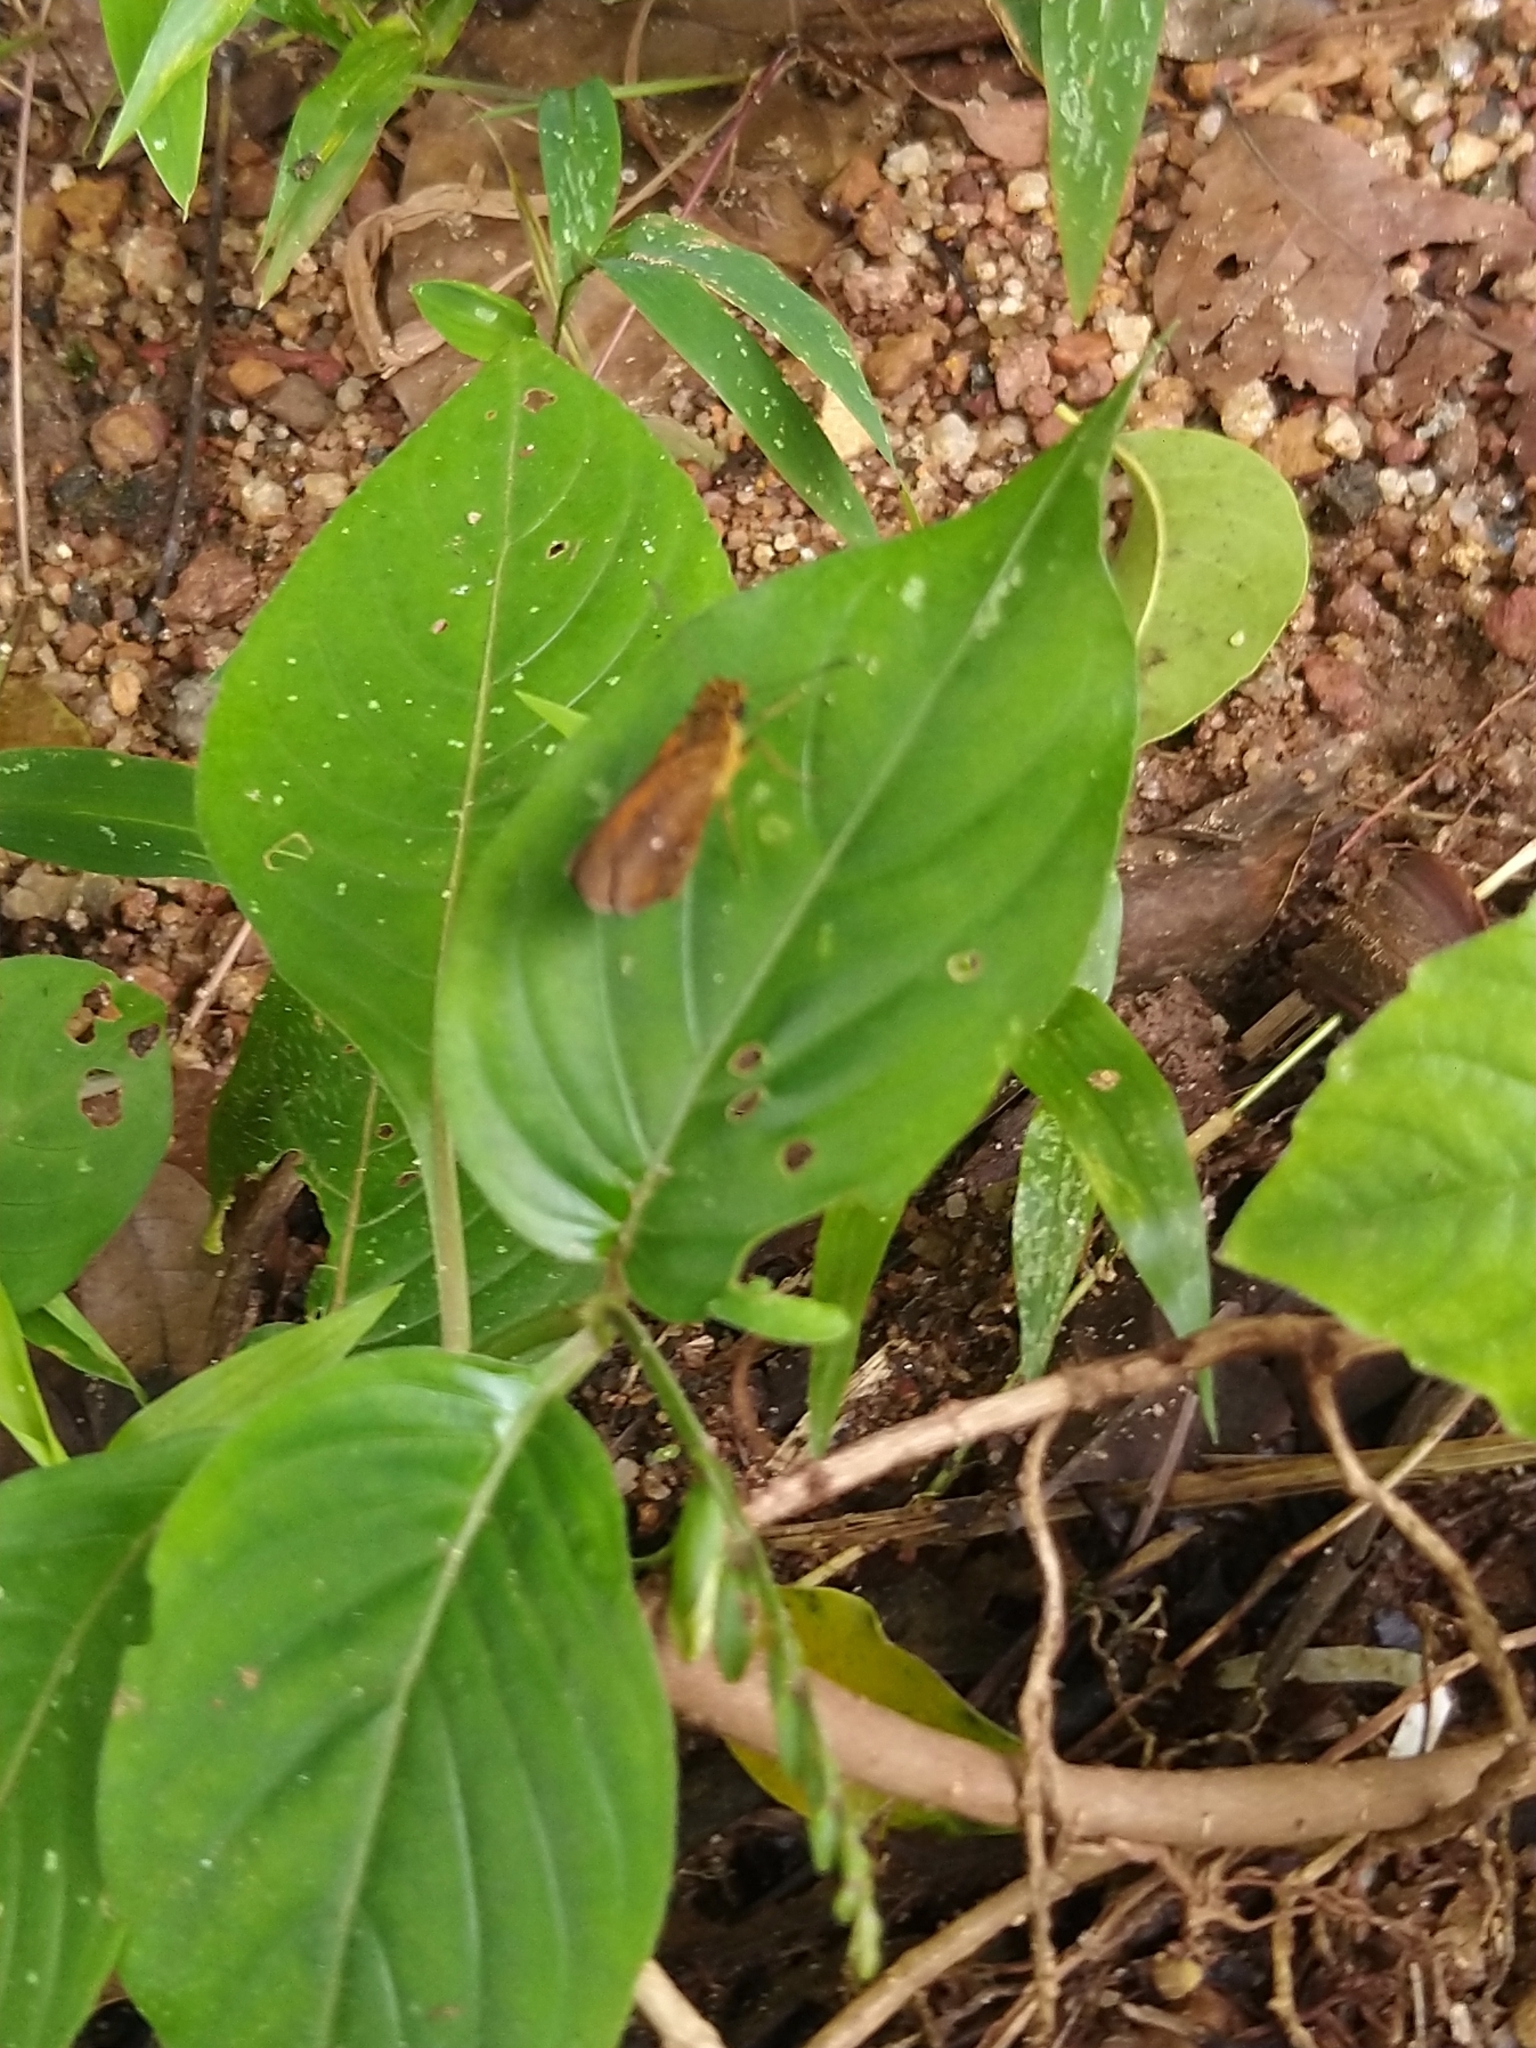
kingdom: Animalia
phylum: Arthropoda
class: Insecta
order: Lepidoptera
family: Hesperiidae
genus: Iambrix
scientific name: Iambrix salsala
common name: Chestnut bob
